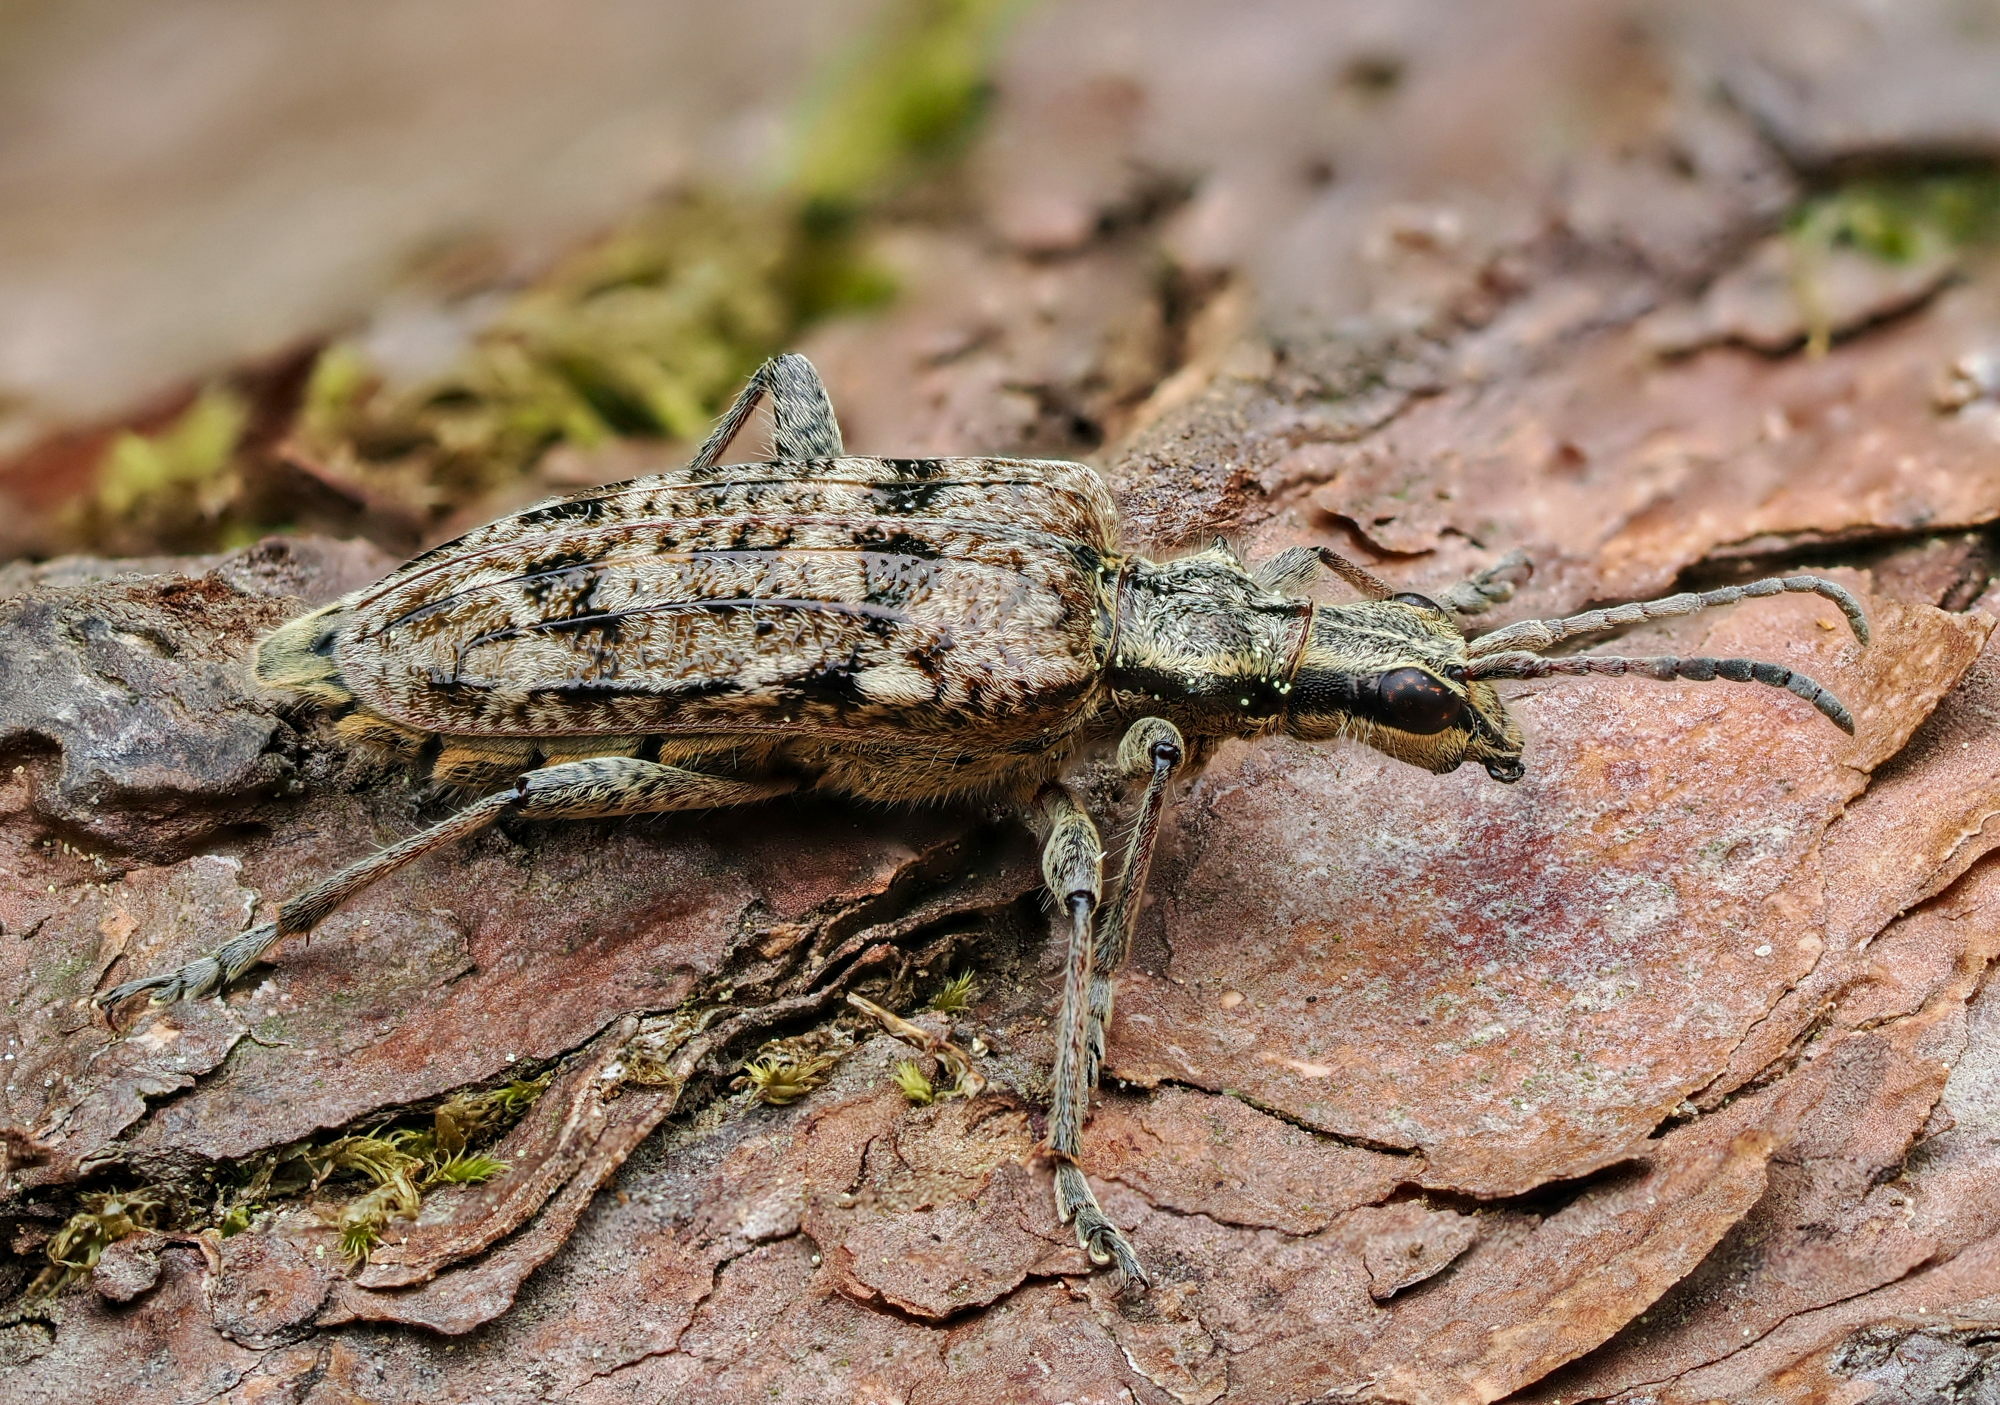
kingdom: Animalia
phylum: Arthropoda
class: Insecta
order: Coleoptera
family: Cerambycidae
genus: Rhagium
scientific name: Rhagium inquisitor
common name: Ribbed pine borer
